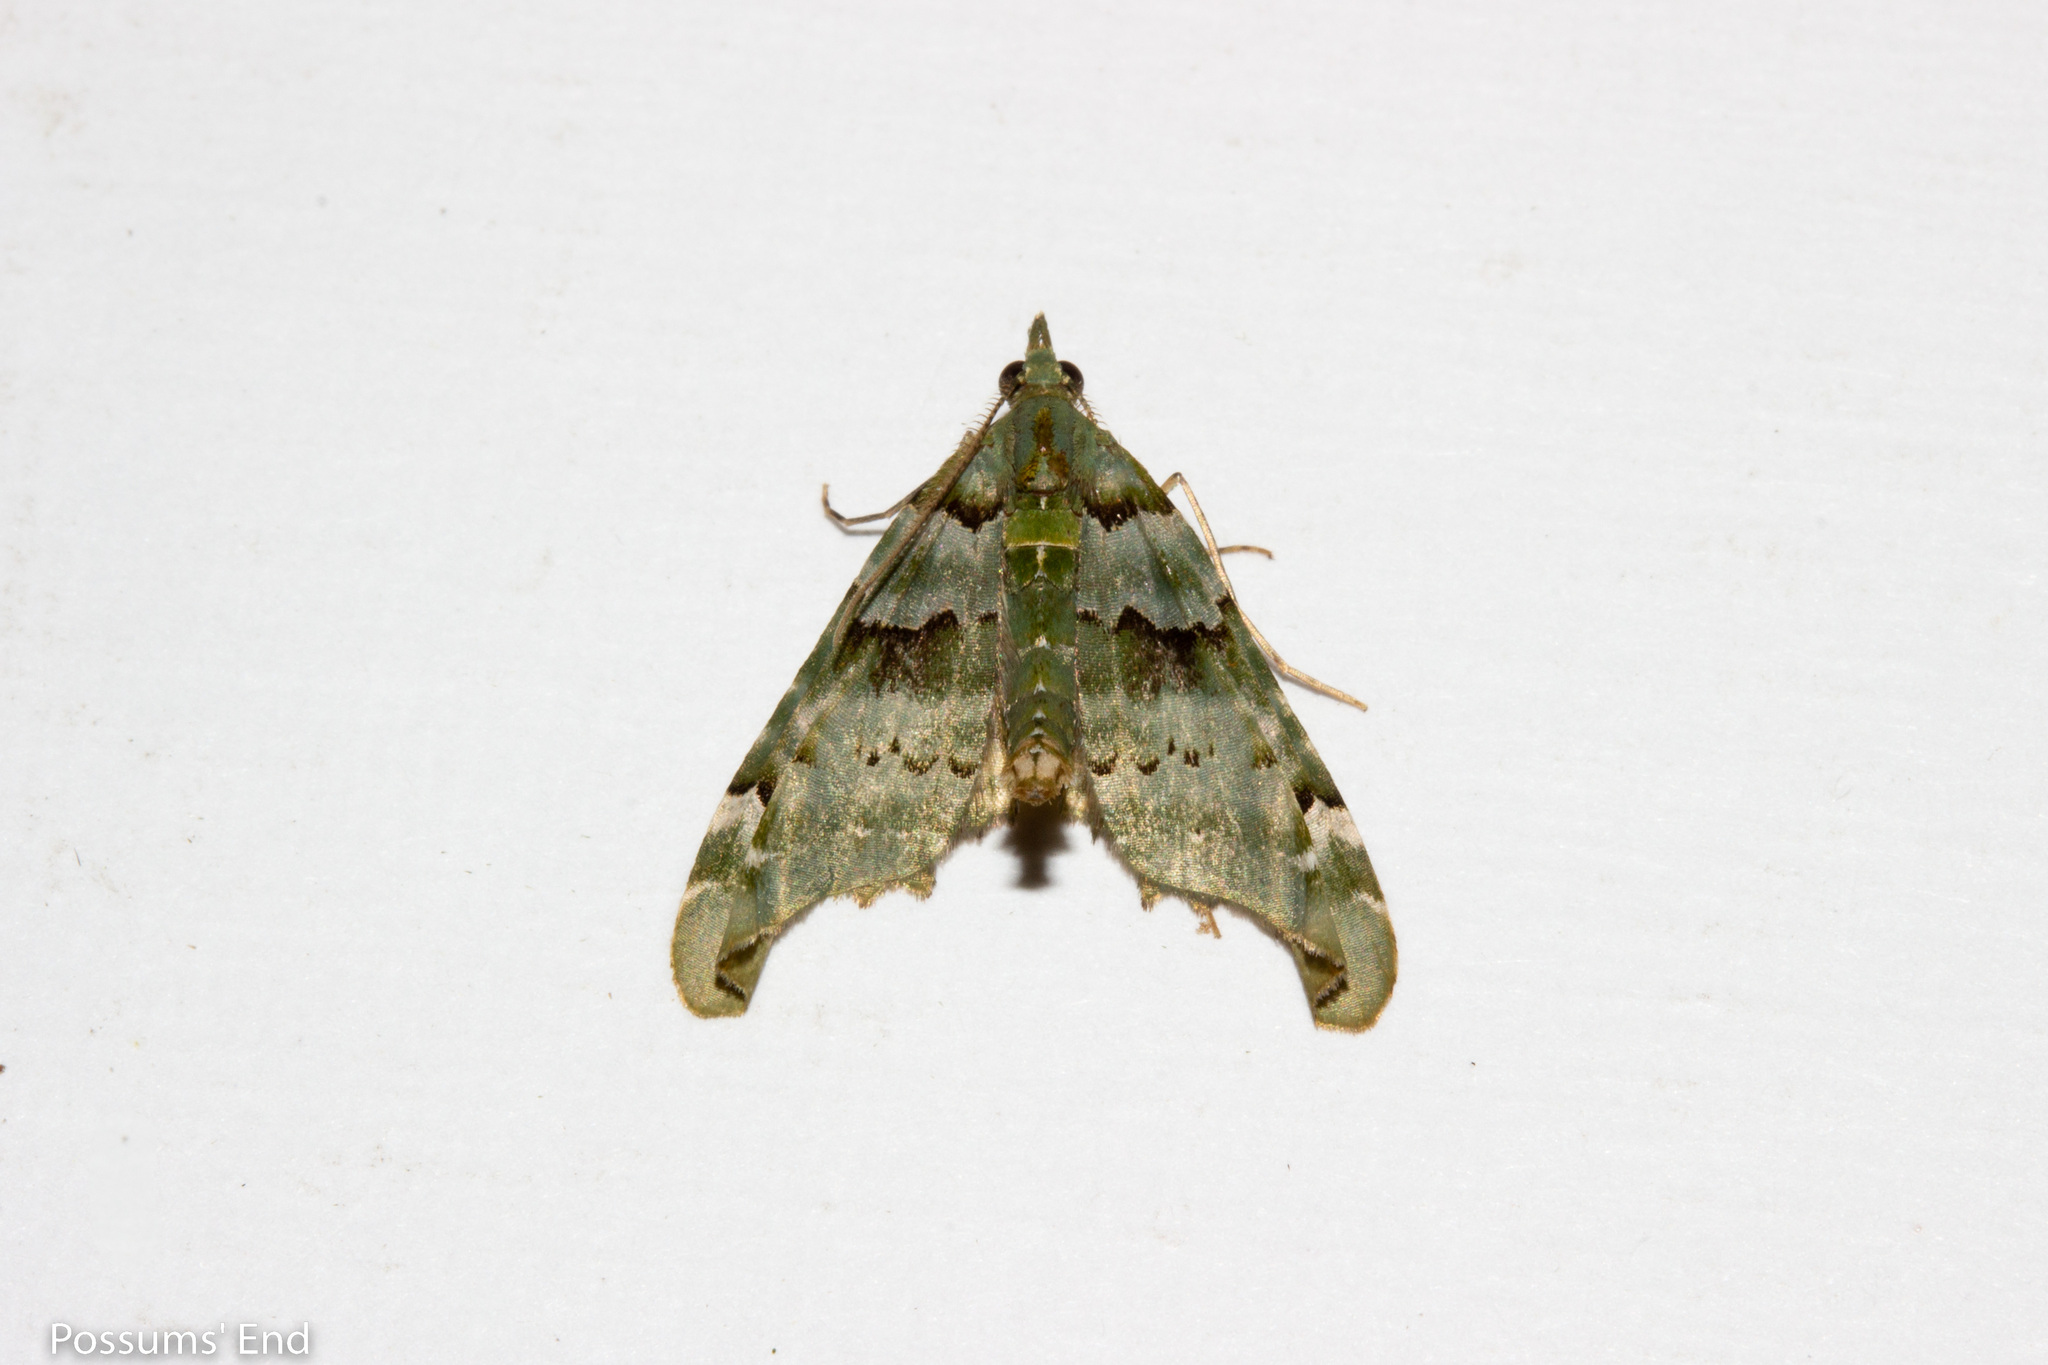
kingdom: Animalia
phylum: Arthropoda
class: Insecta
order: Lepidoptera
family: Geometridae
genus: Elvia
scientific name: Elvia glaucata
